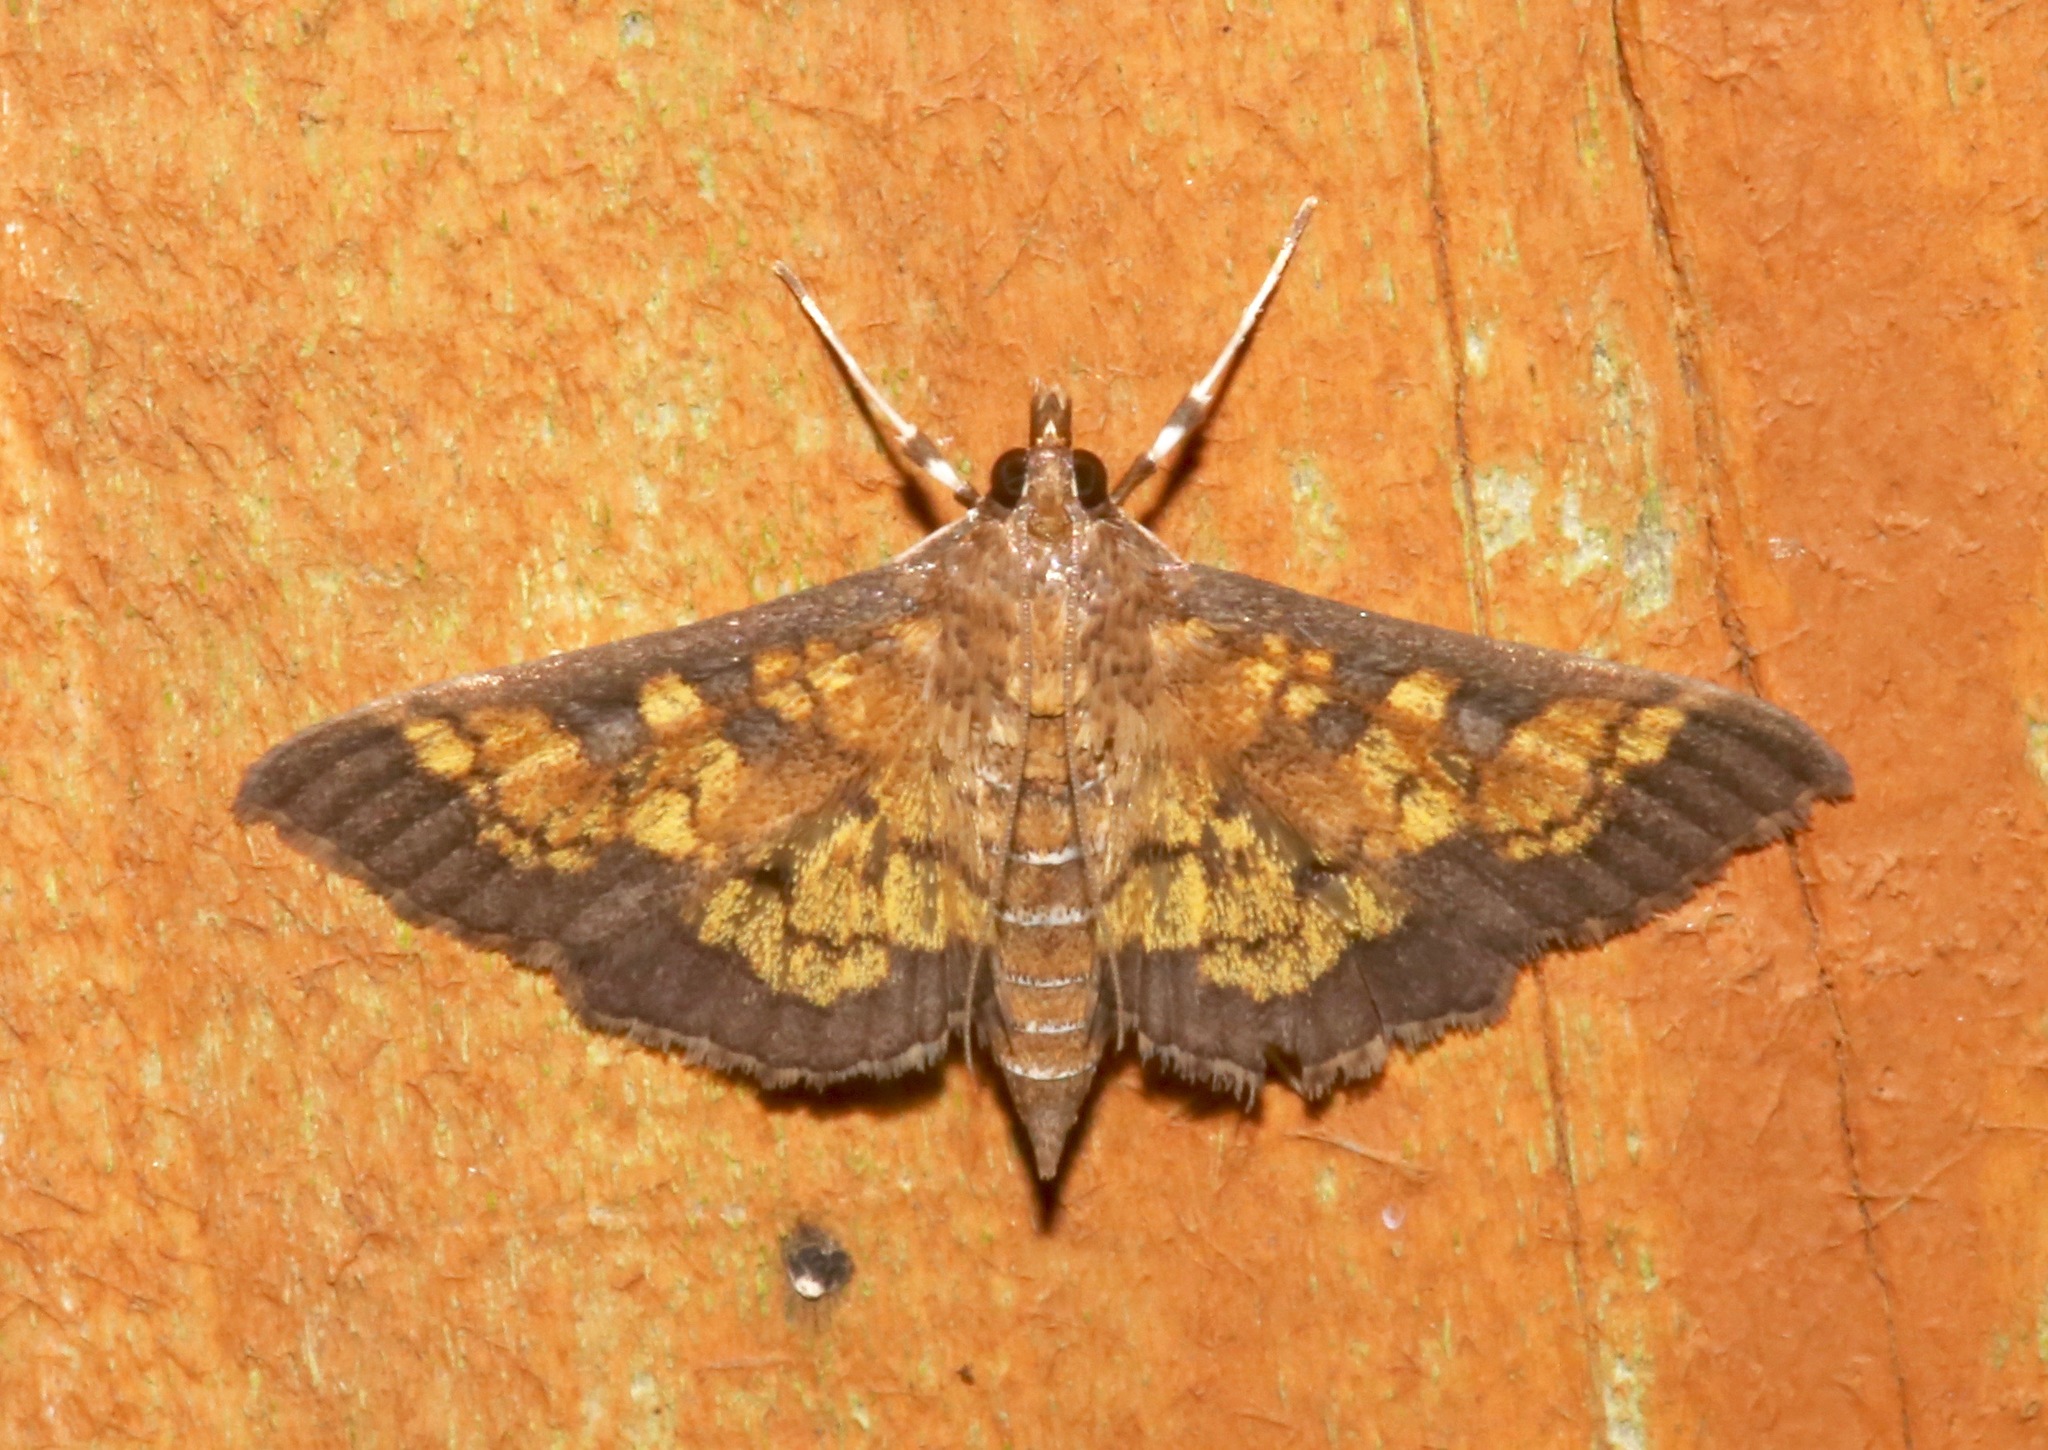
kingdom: Animalia
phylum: Arthropoda
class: Insecta
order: Lepidoptera
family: Crambidae
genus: Epipagis
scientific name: Epipagis adipaloides
